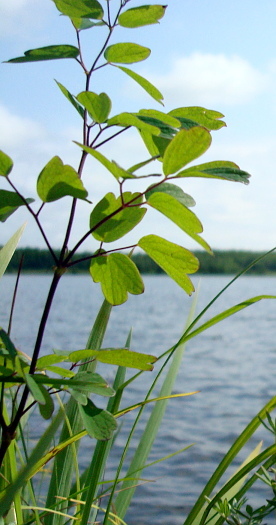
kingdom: Plantae
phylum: Tracheophyta
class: Magnoliopsida
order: Ranunculales
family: Ranunculaceae
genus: Thalictrum
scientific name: Thalictrum minus
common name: Lesser meadow-rue
